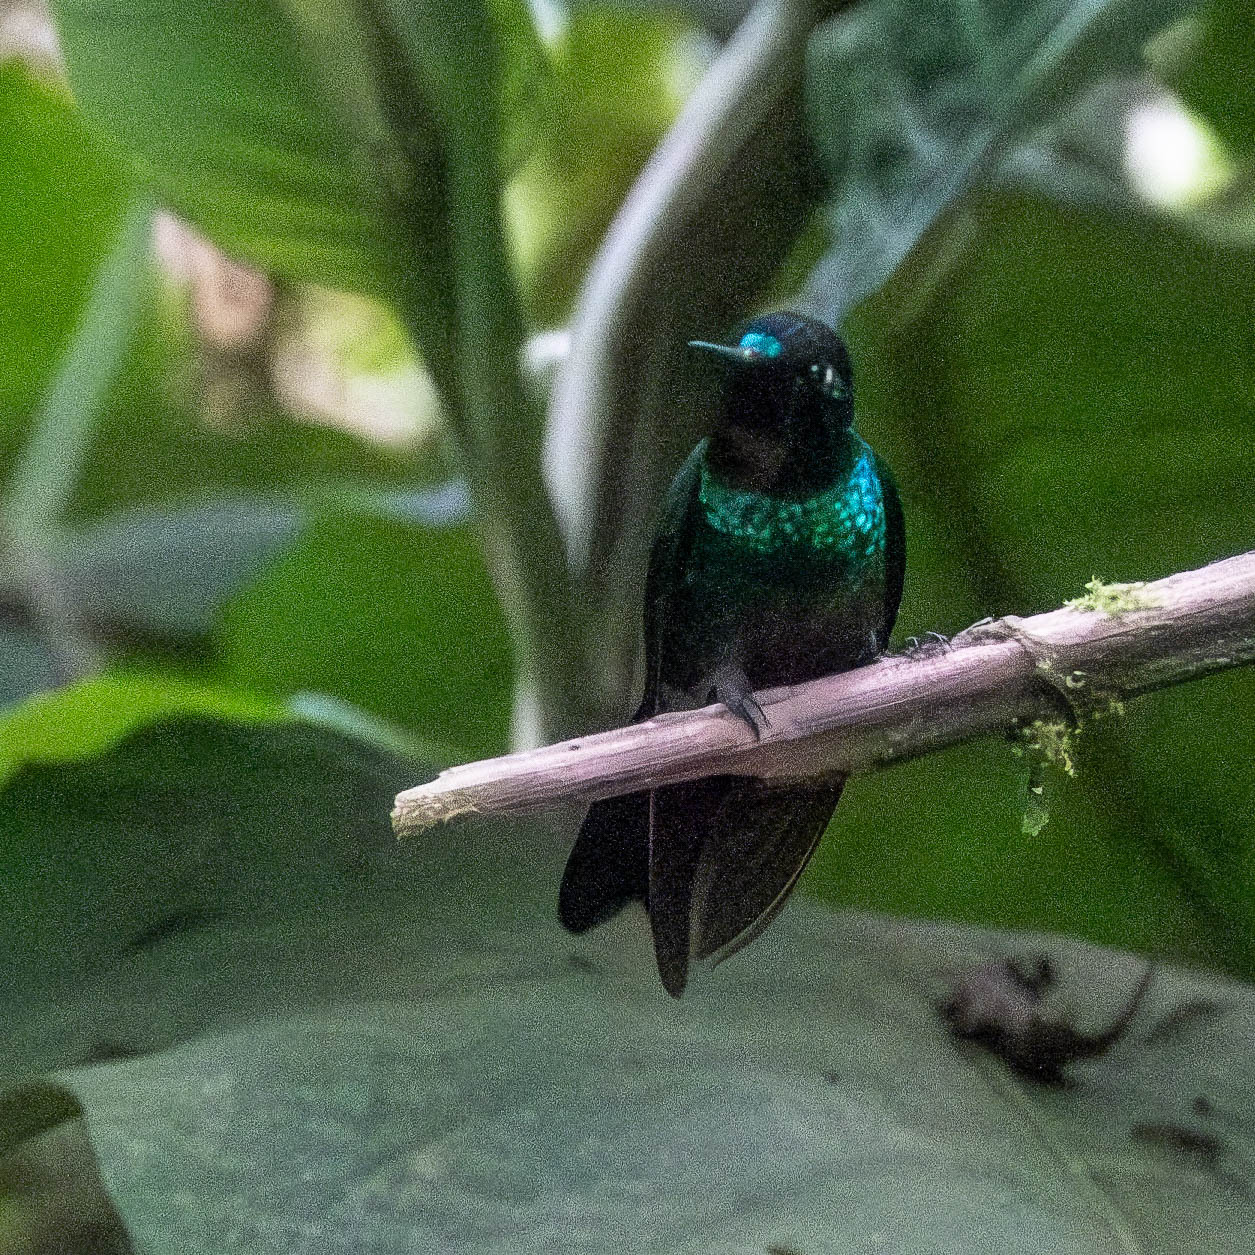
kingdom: Animalia
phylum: Chordata
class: Aves
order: Apodiformes
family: Trochilidae
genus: Heliangelus
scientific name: Heliangelus exortis
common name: Tourmaline sunangel
